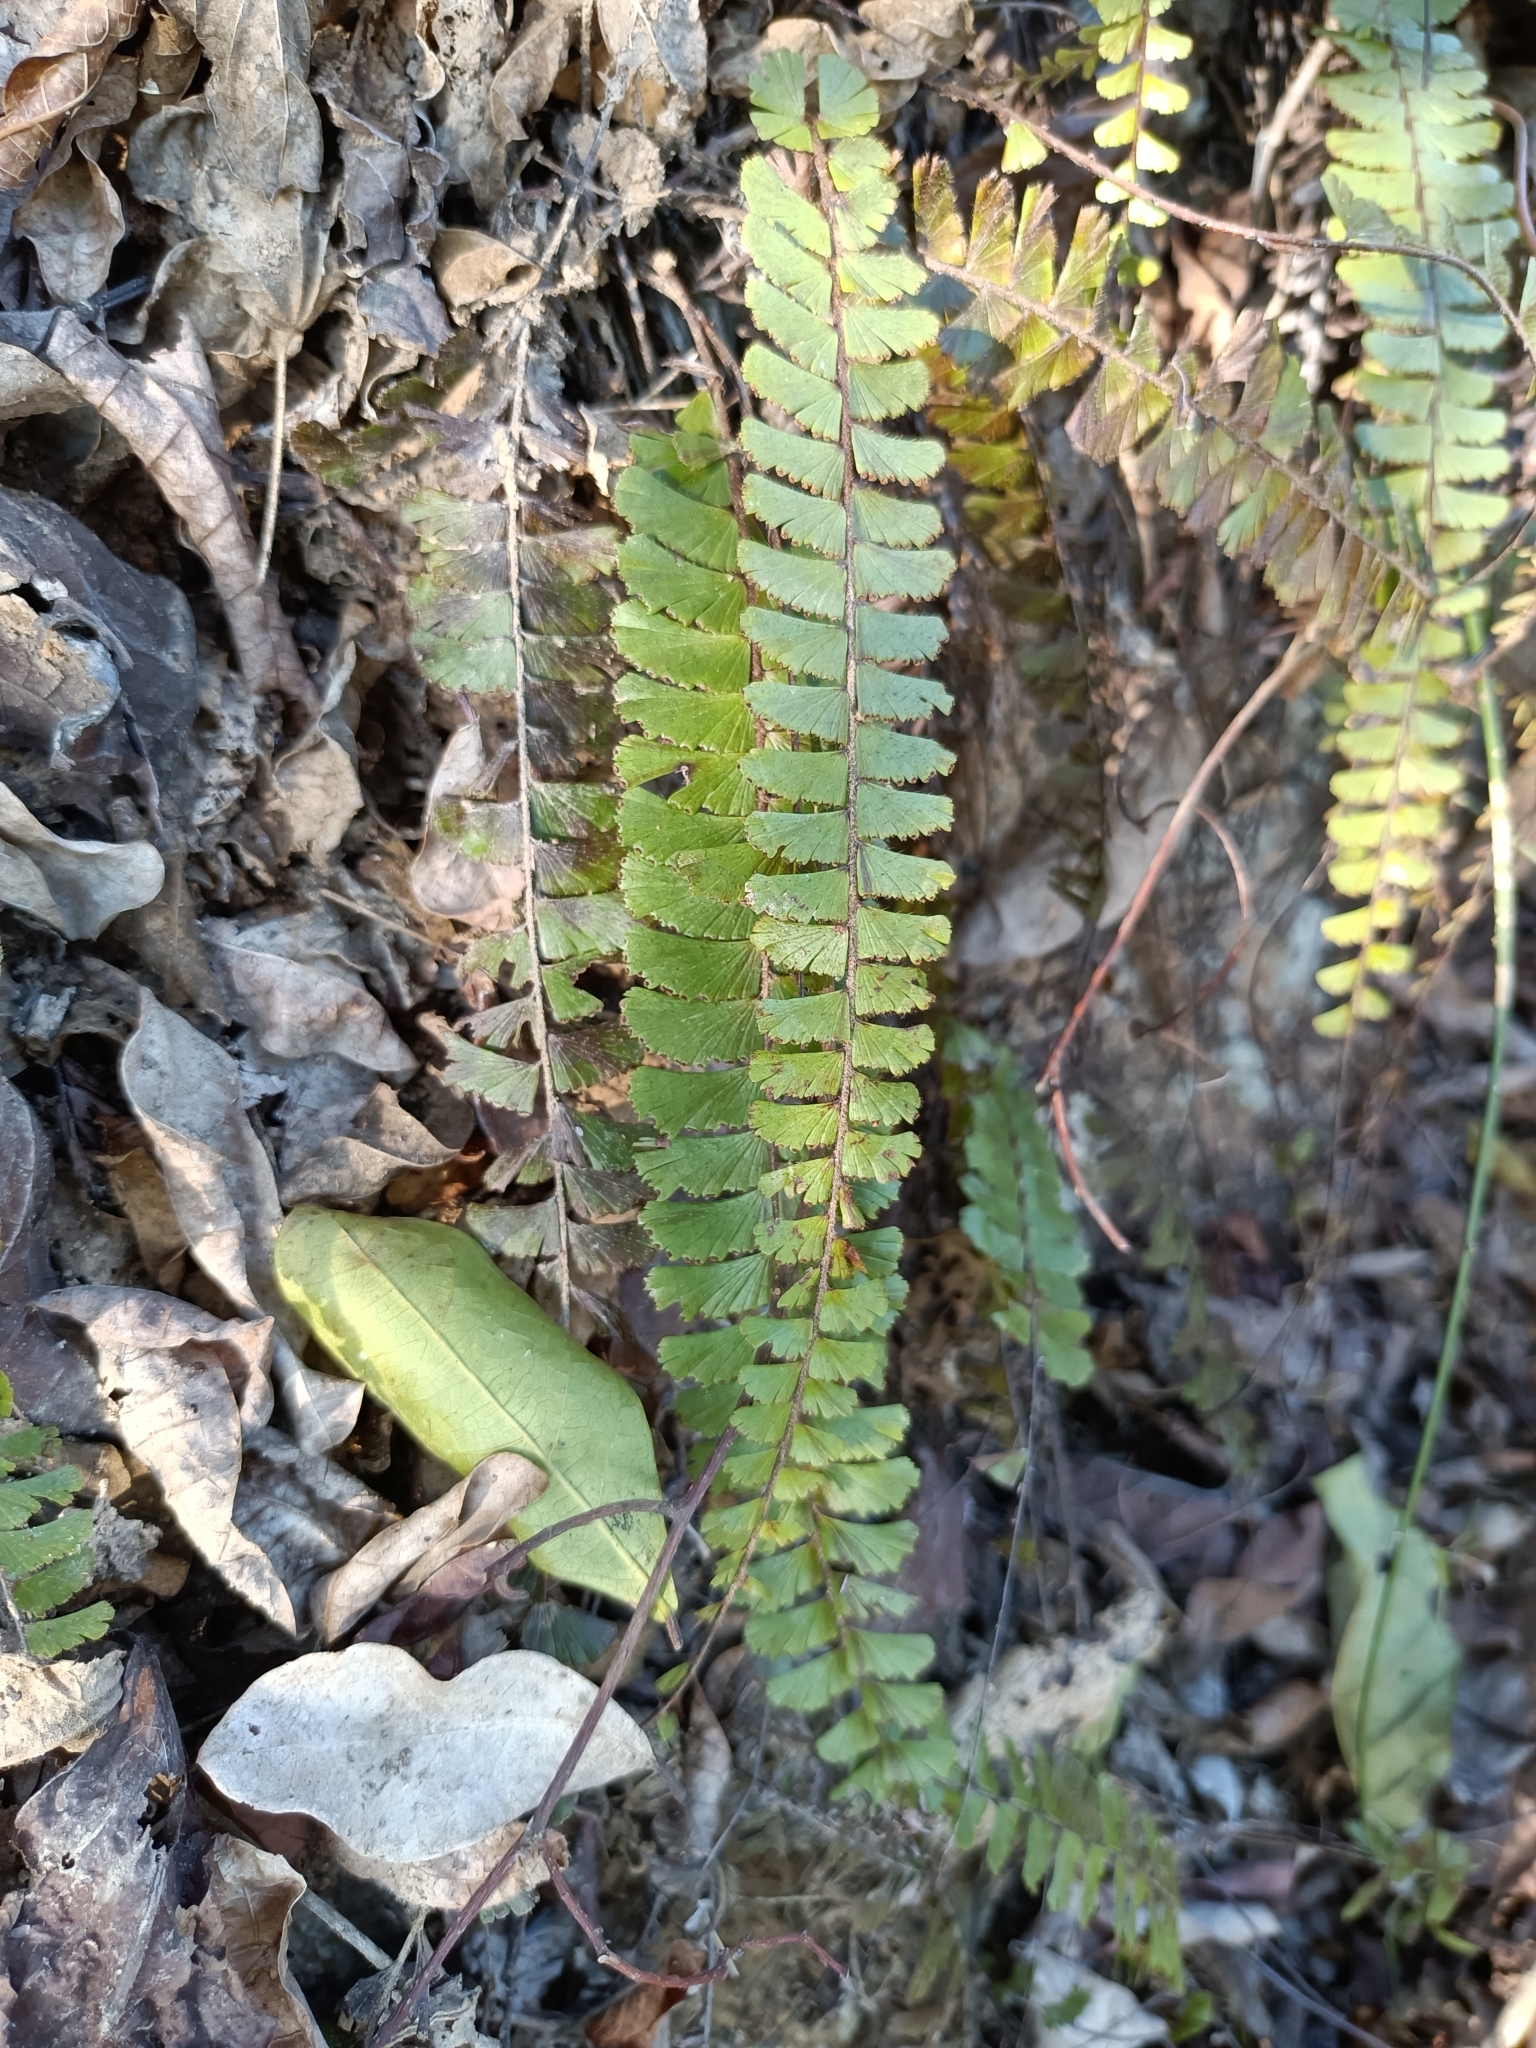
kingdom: Plantae
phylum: Tracheophyta
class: Polypodiopsida
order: Polypodiales
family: Pteridaceae
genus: Adiantum
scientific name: Adiantum caudatum
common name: Tailed maidenhair
